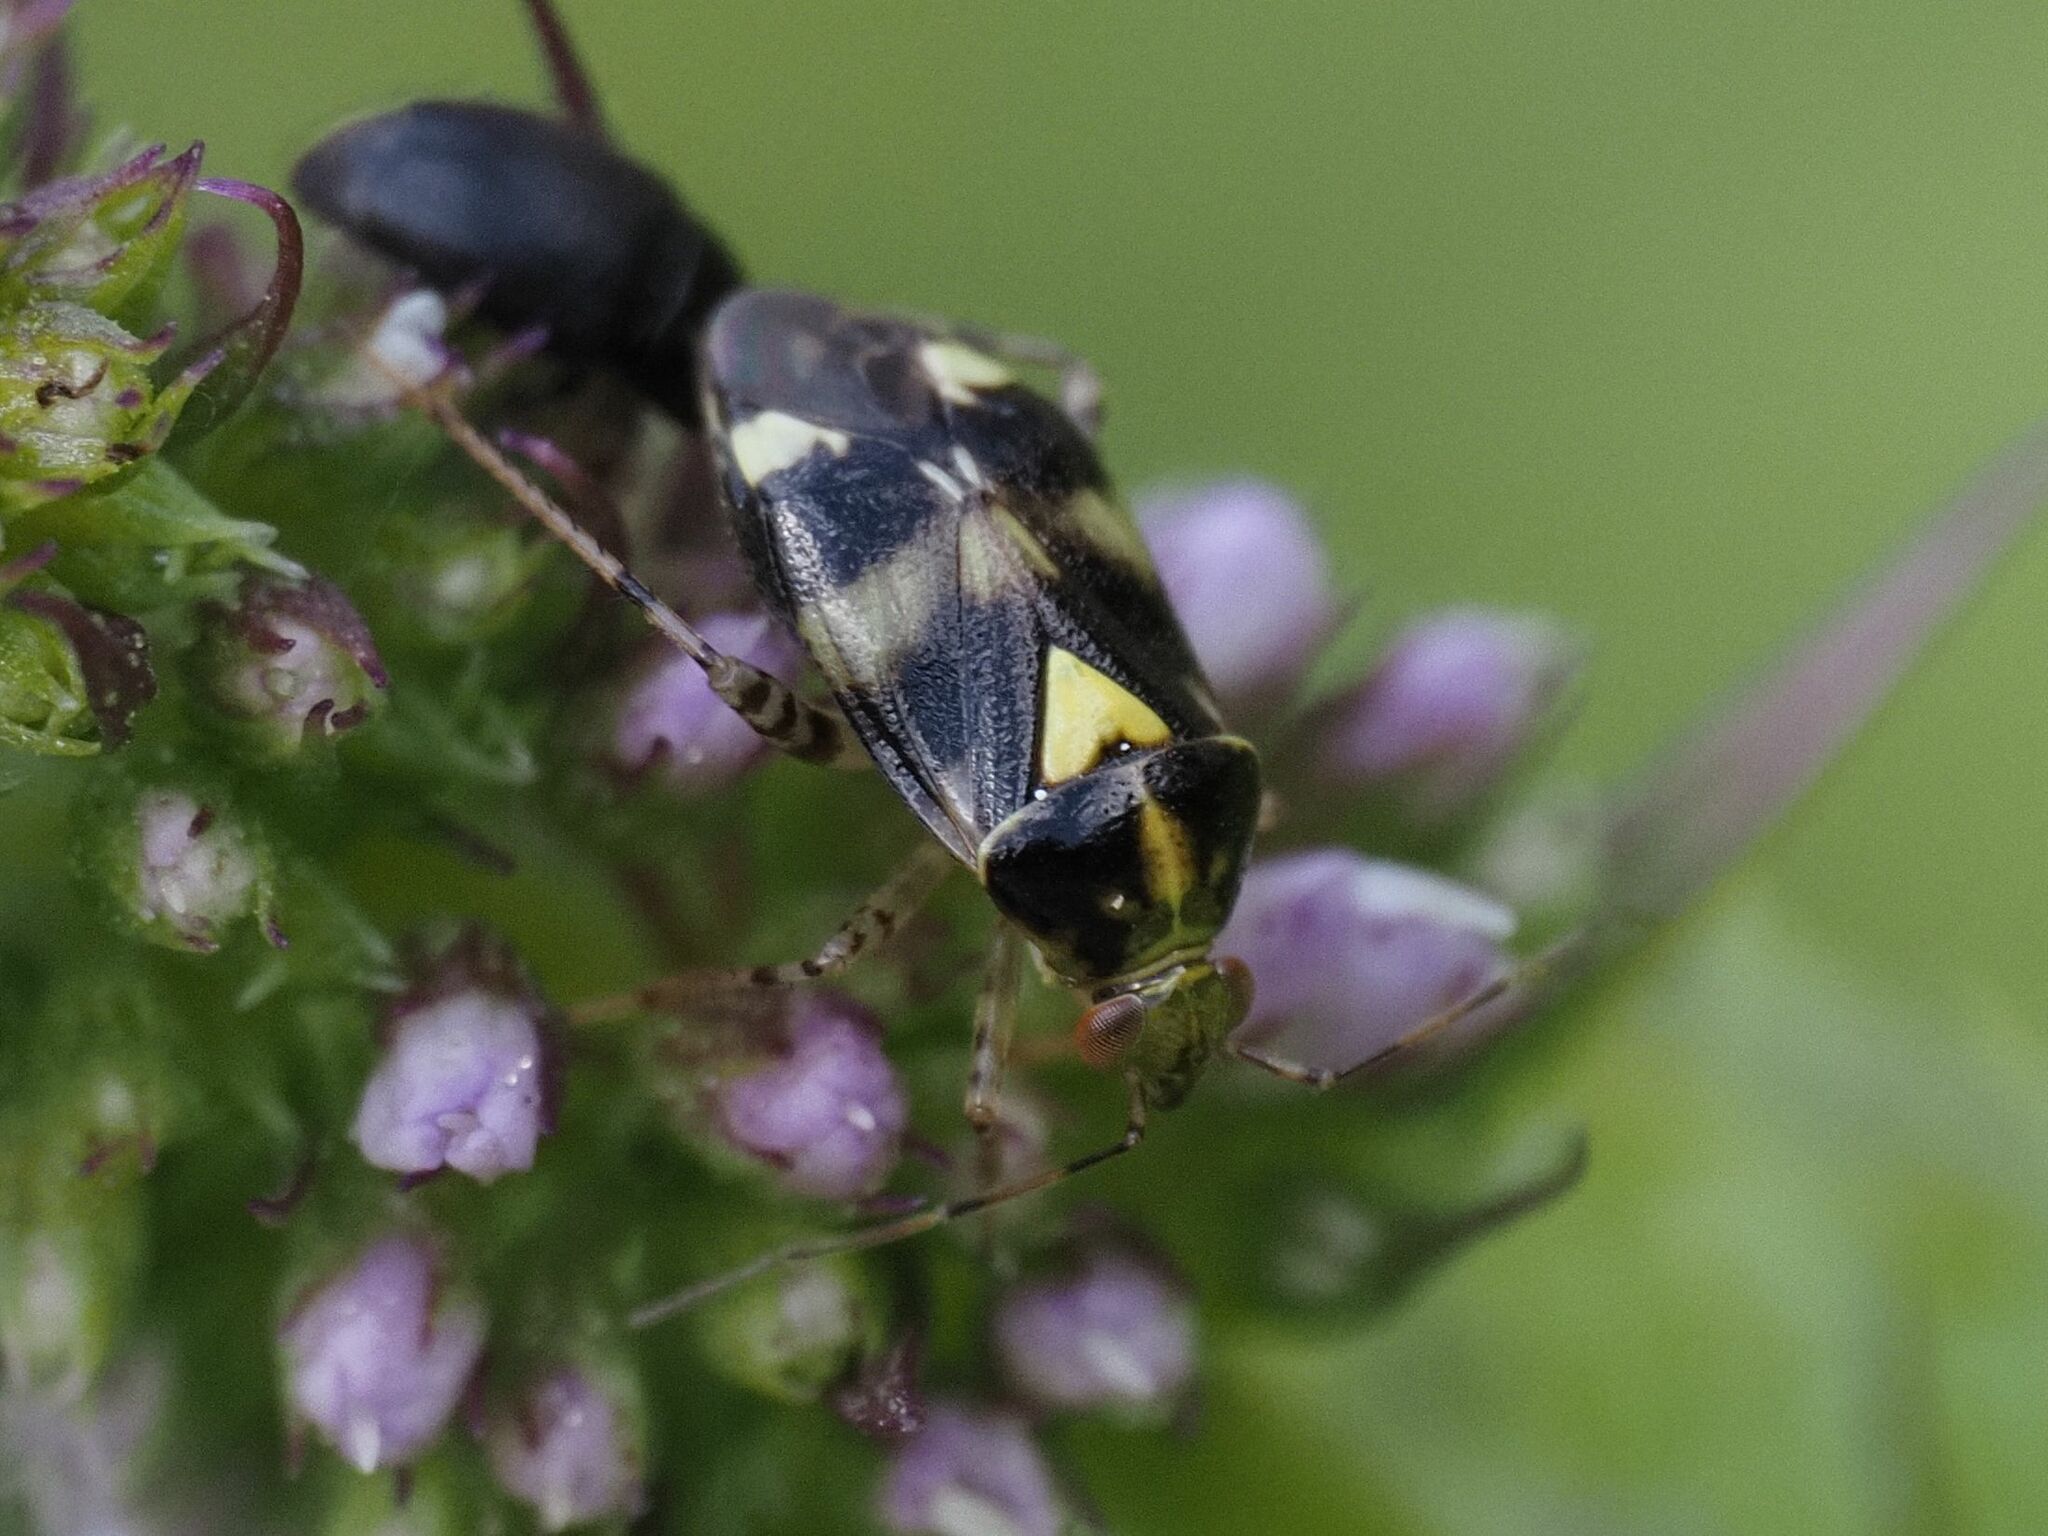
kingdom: Animalia
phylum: Arthropoda
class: Insecta
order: Hemiptera
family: Miridae
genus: Liocoris
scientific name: Liocoris tripustulatus
